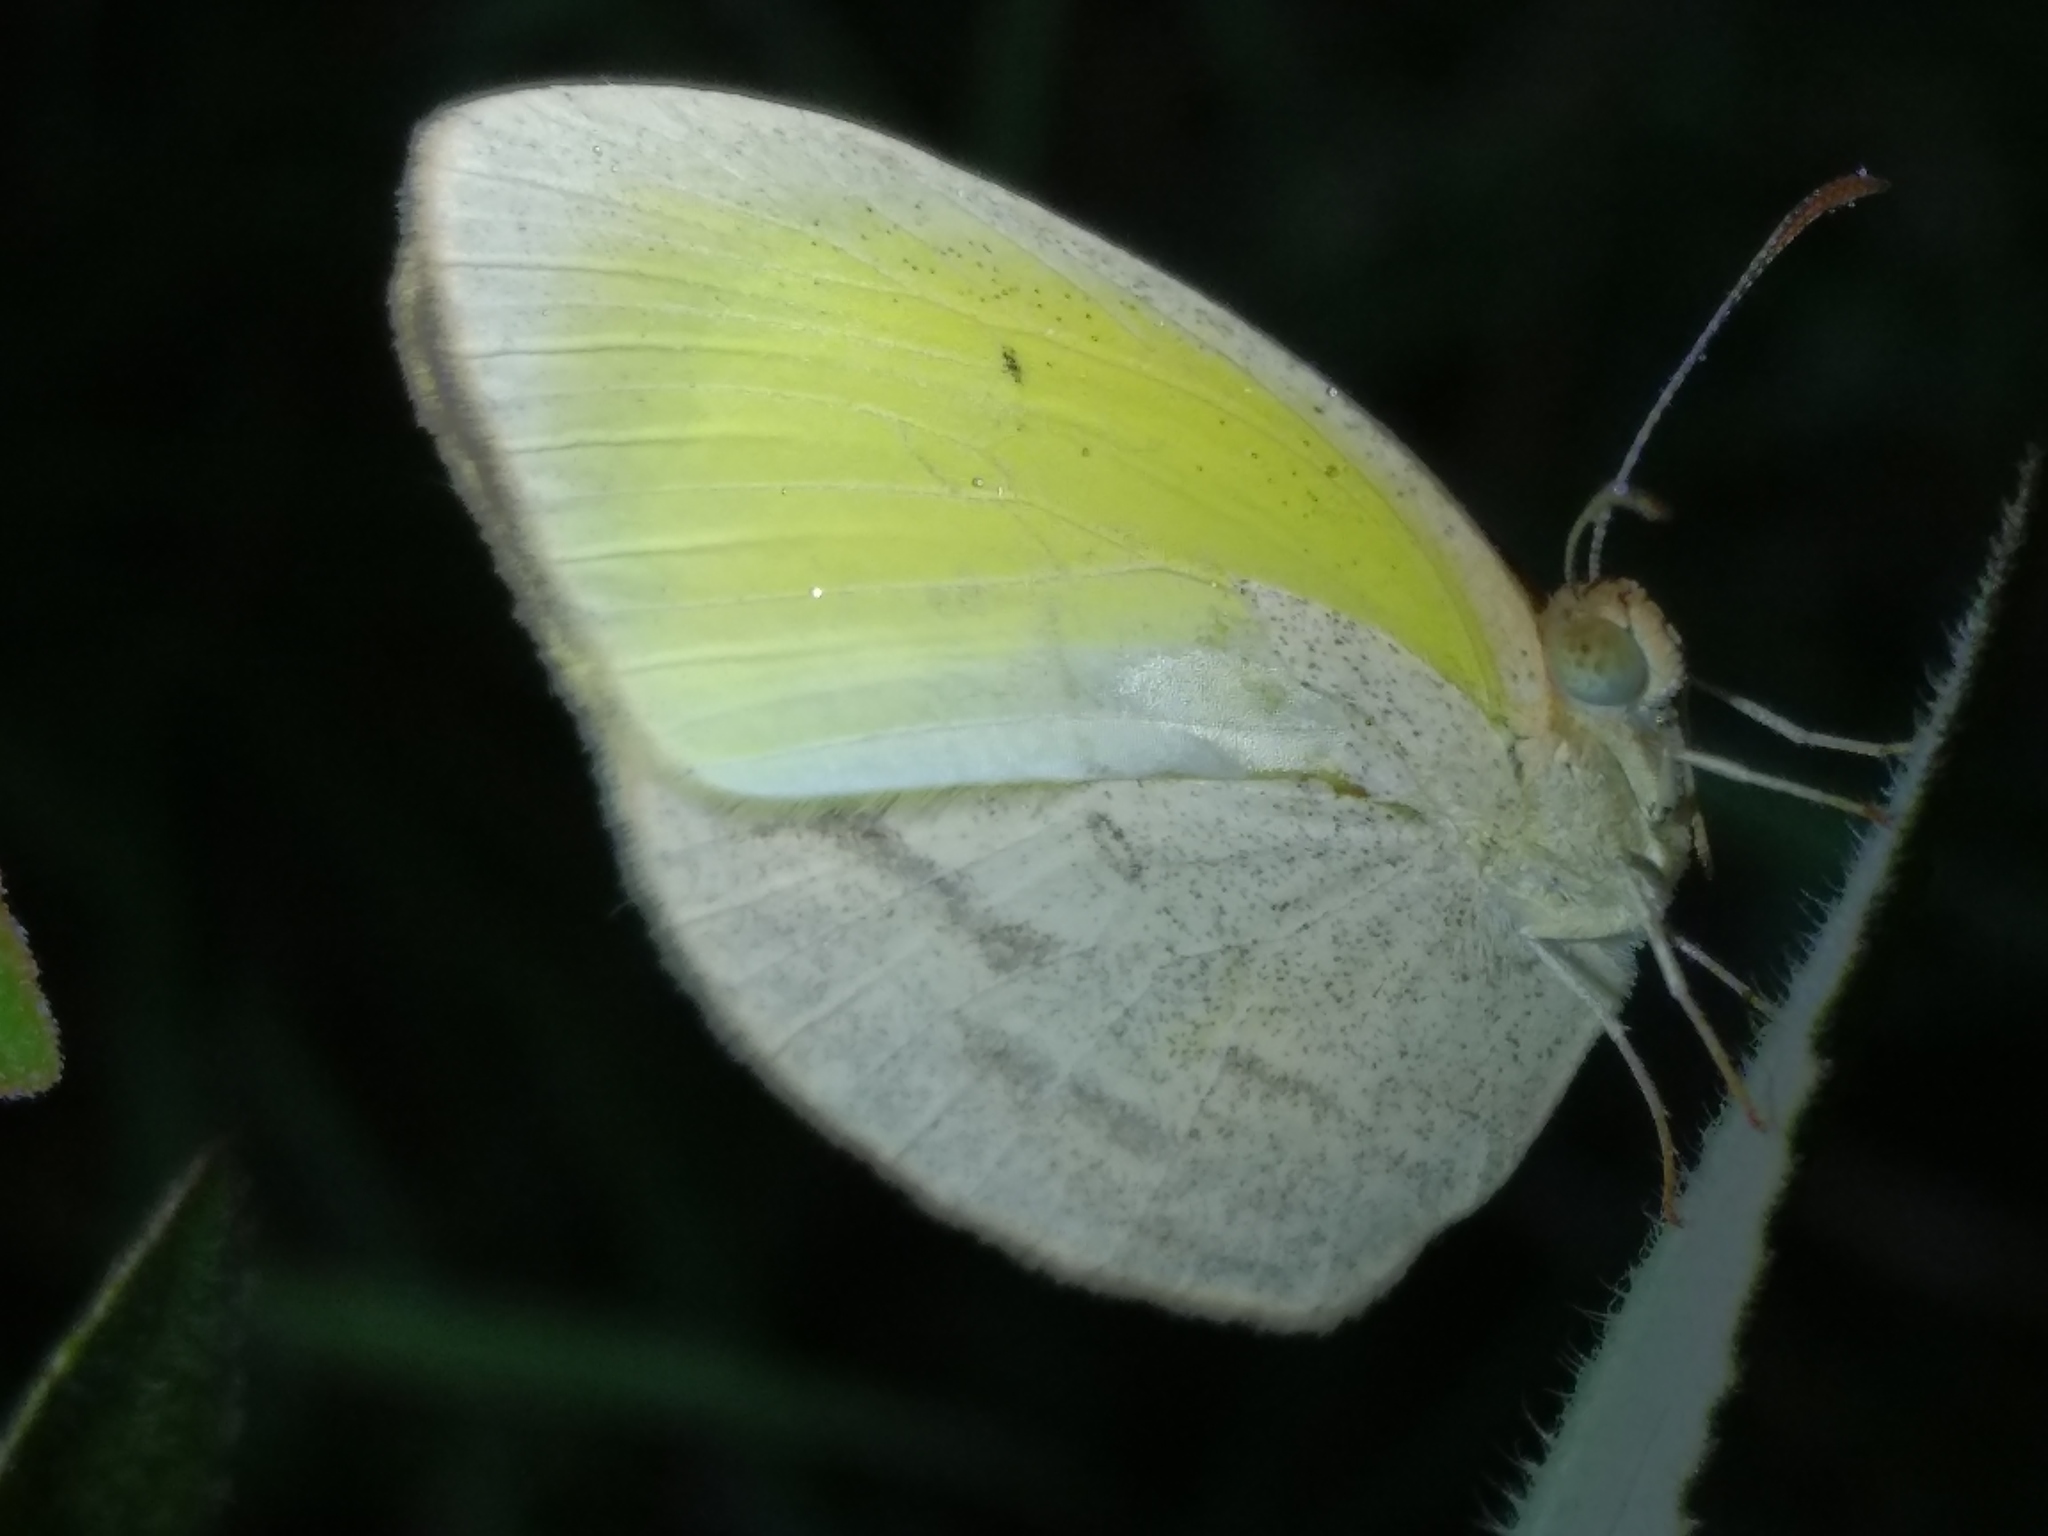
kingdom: Animalia
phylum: Arthropoda
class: Insecta
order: Lepidoptera
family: Pieridae
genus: Eurema
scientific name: Eurema herla
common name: Macleay's grass yellow
